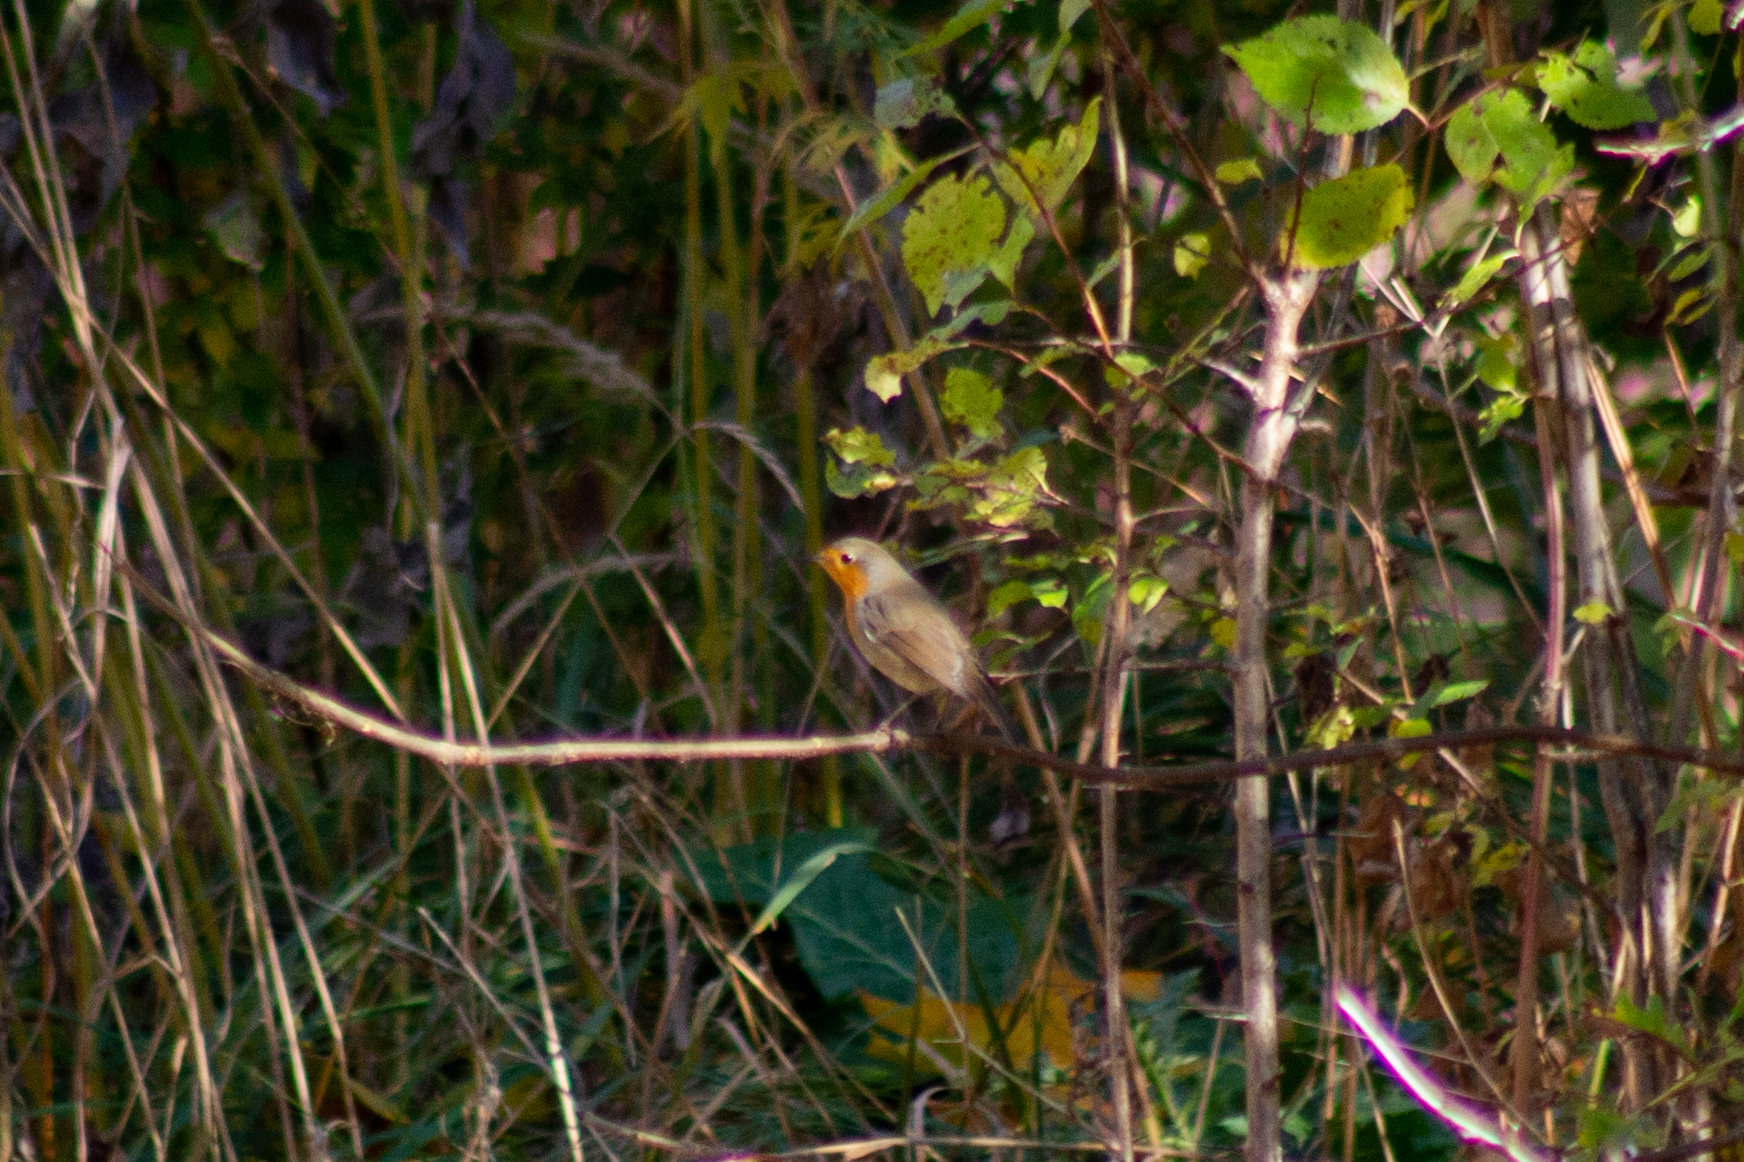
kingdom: Animalia
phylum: Chordata
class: Aves
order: Passeriformes
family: Muscicapidae
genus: Erithacus
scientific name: Erithacus rubecula
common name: European robin
